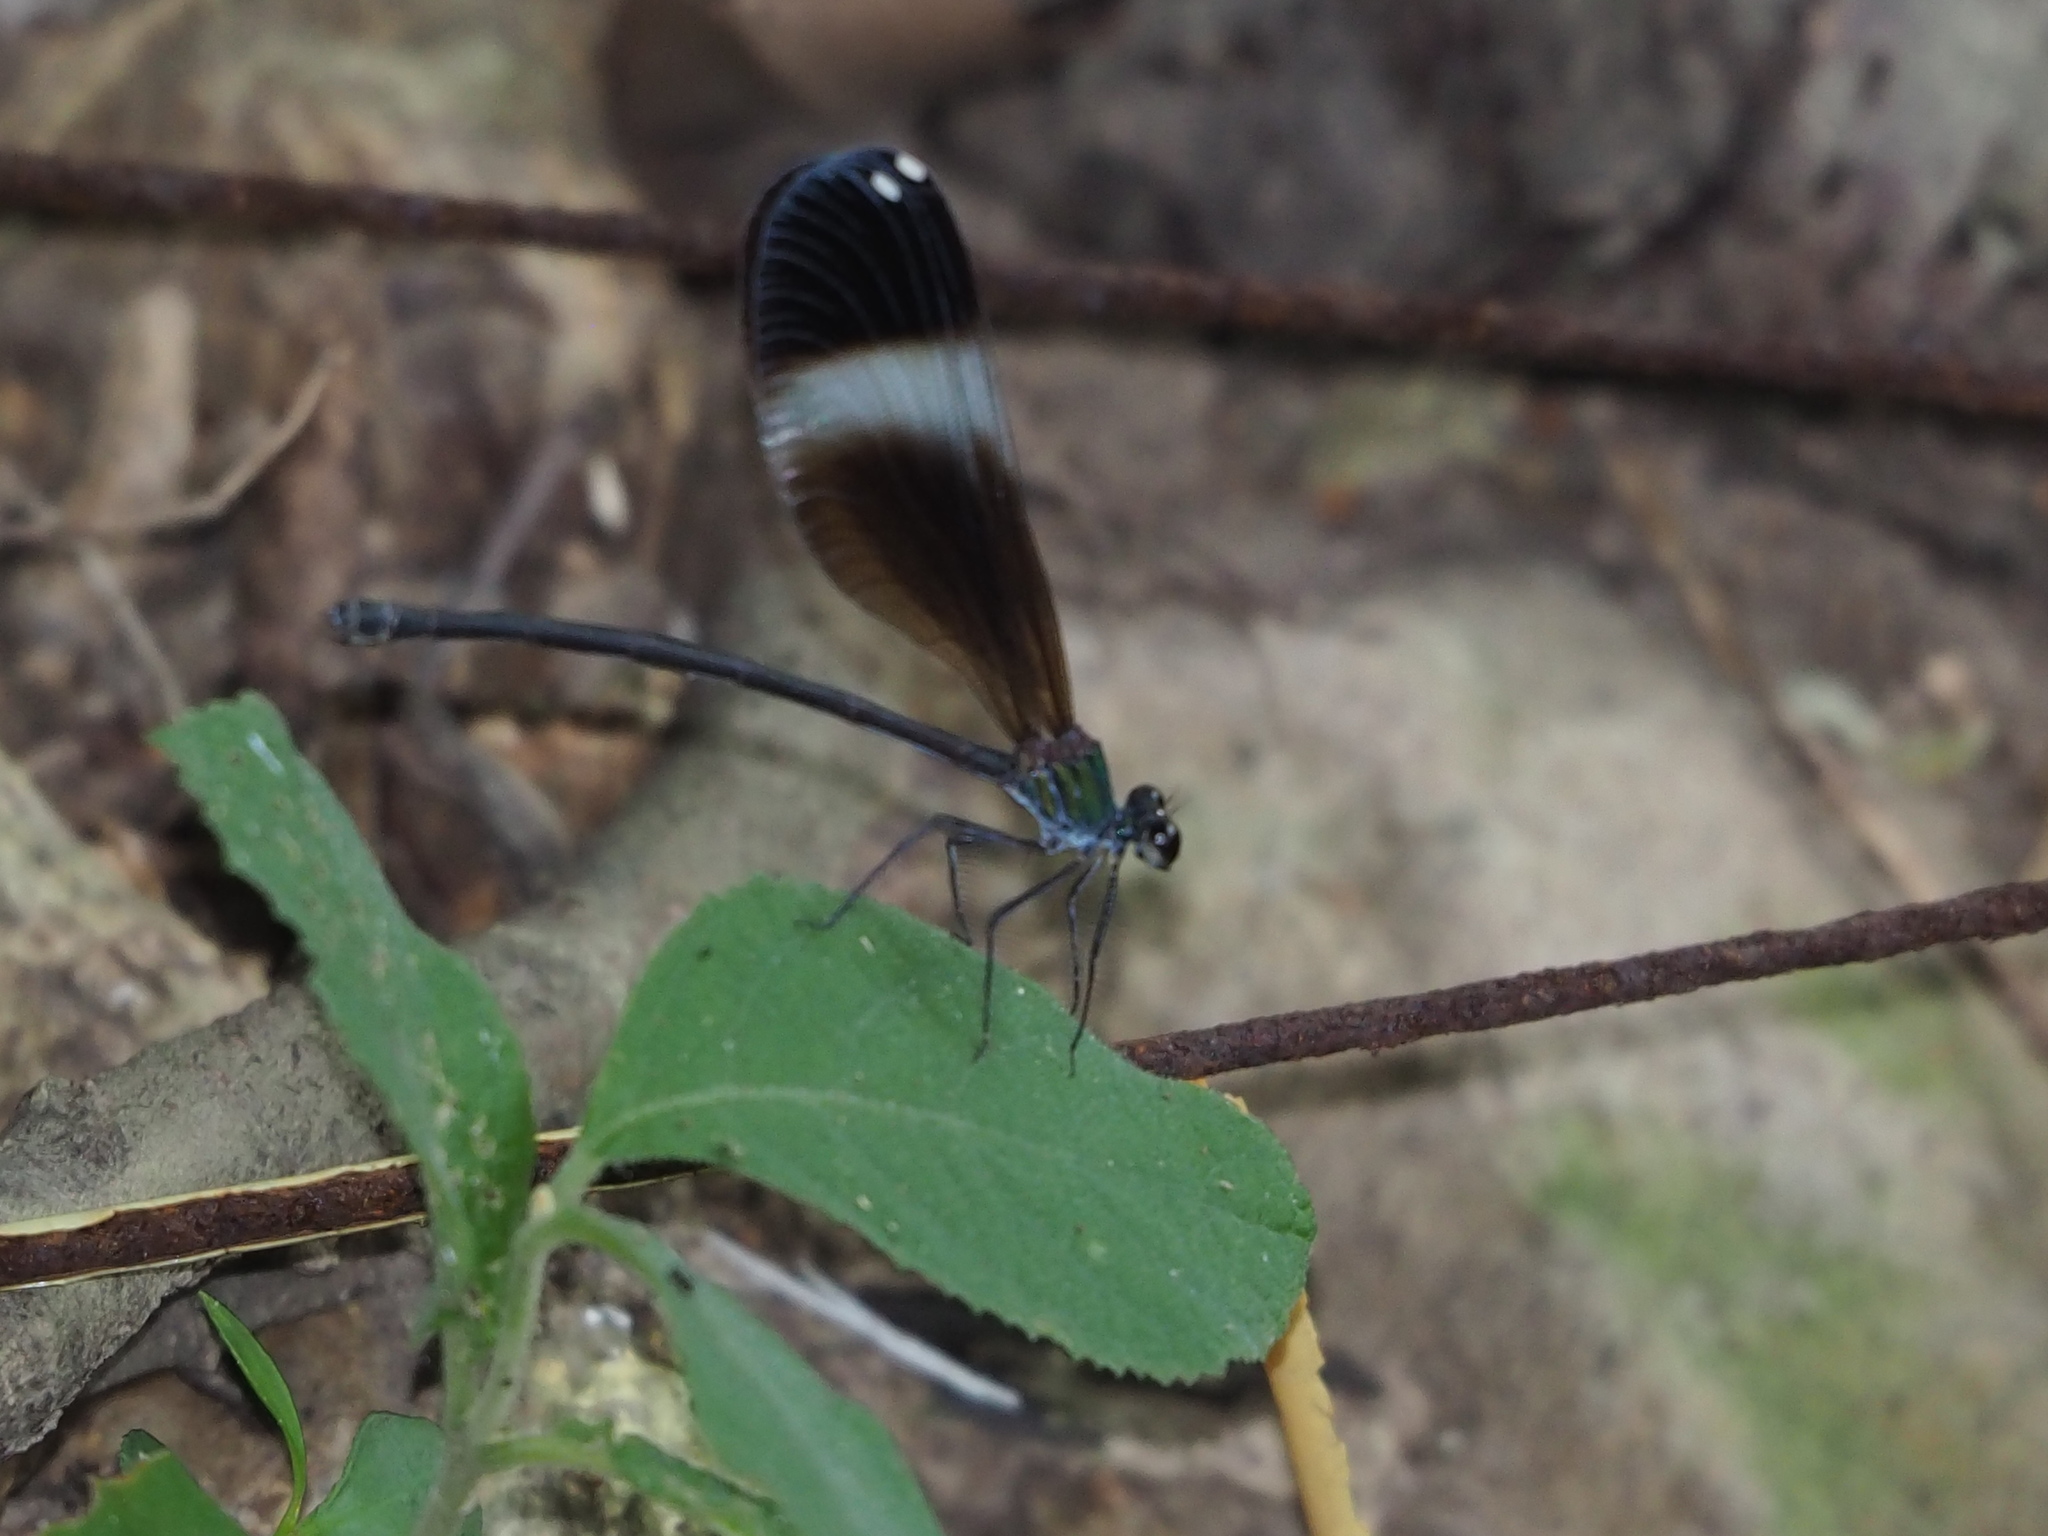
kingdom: Animalia
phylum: Arthropoda
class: Insecta
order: Odonata
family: Calopterygidae
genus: Psolodesmus
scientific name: Psolodesmus mandarinus
